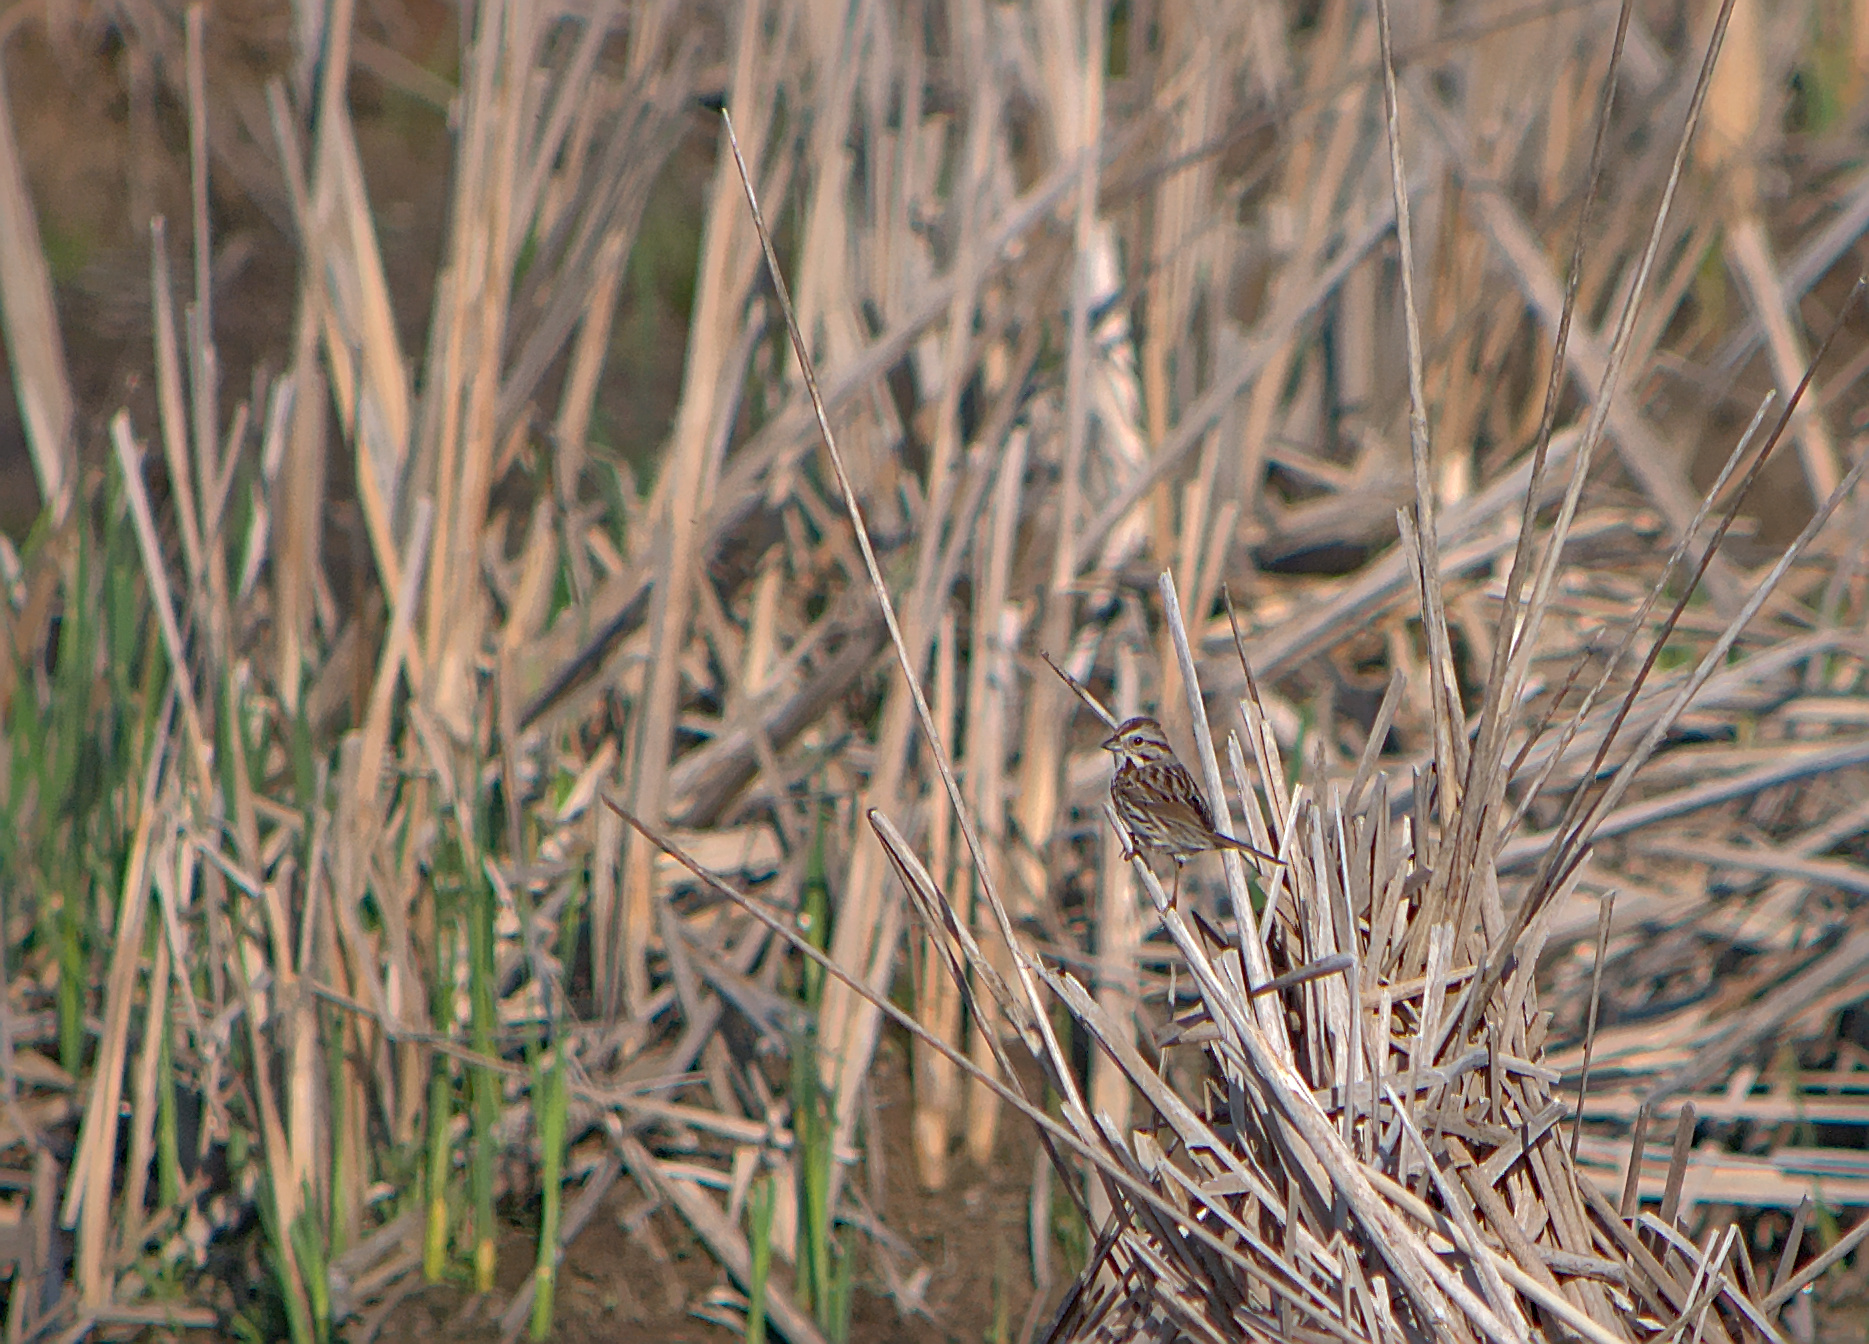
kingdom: Animalia
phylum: Chordata
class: Aves
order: Passeriformes
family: Passerellidae
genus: Melospiza
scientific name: Melospiza melodia
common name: Song sparrow
